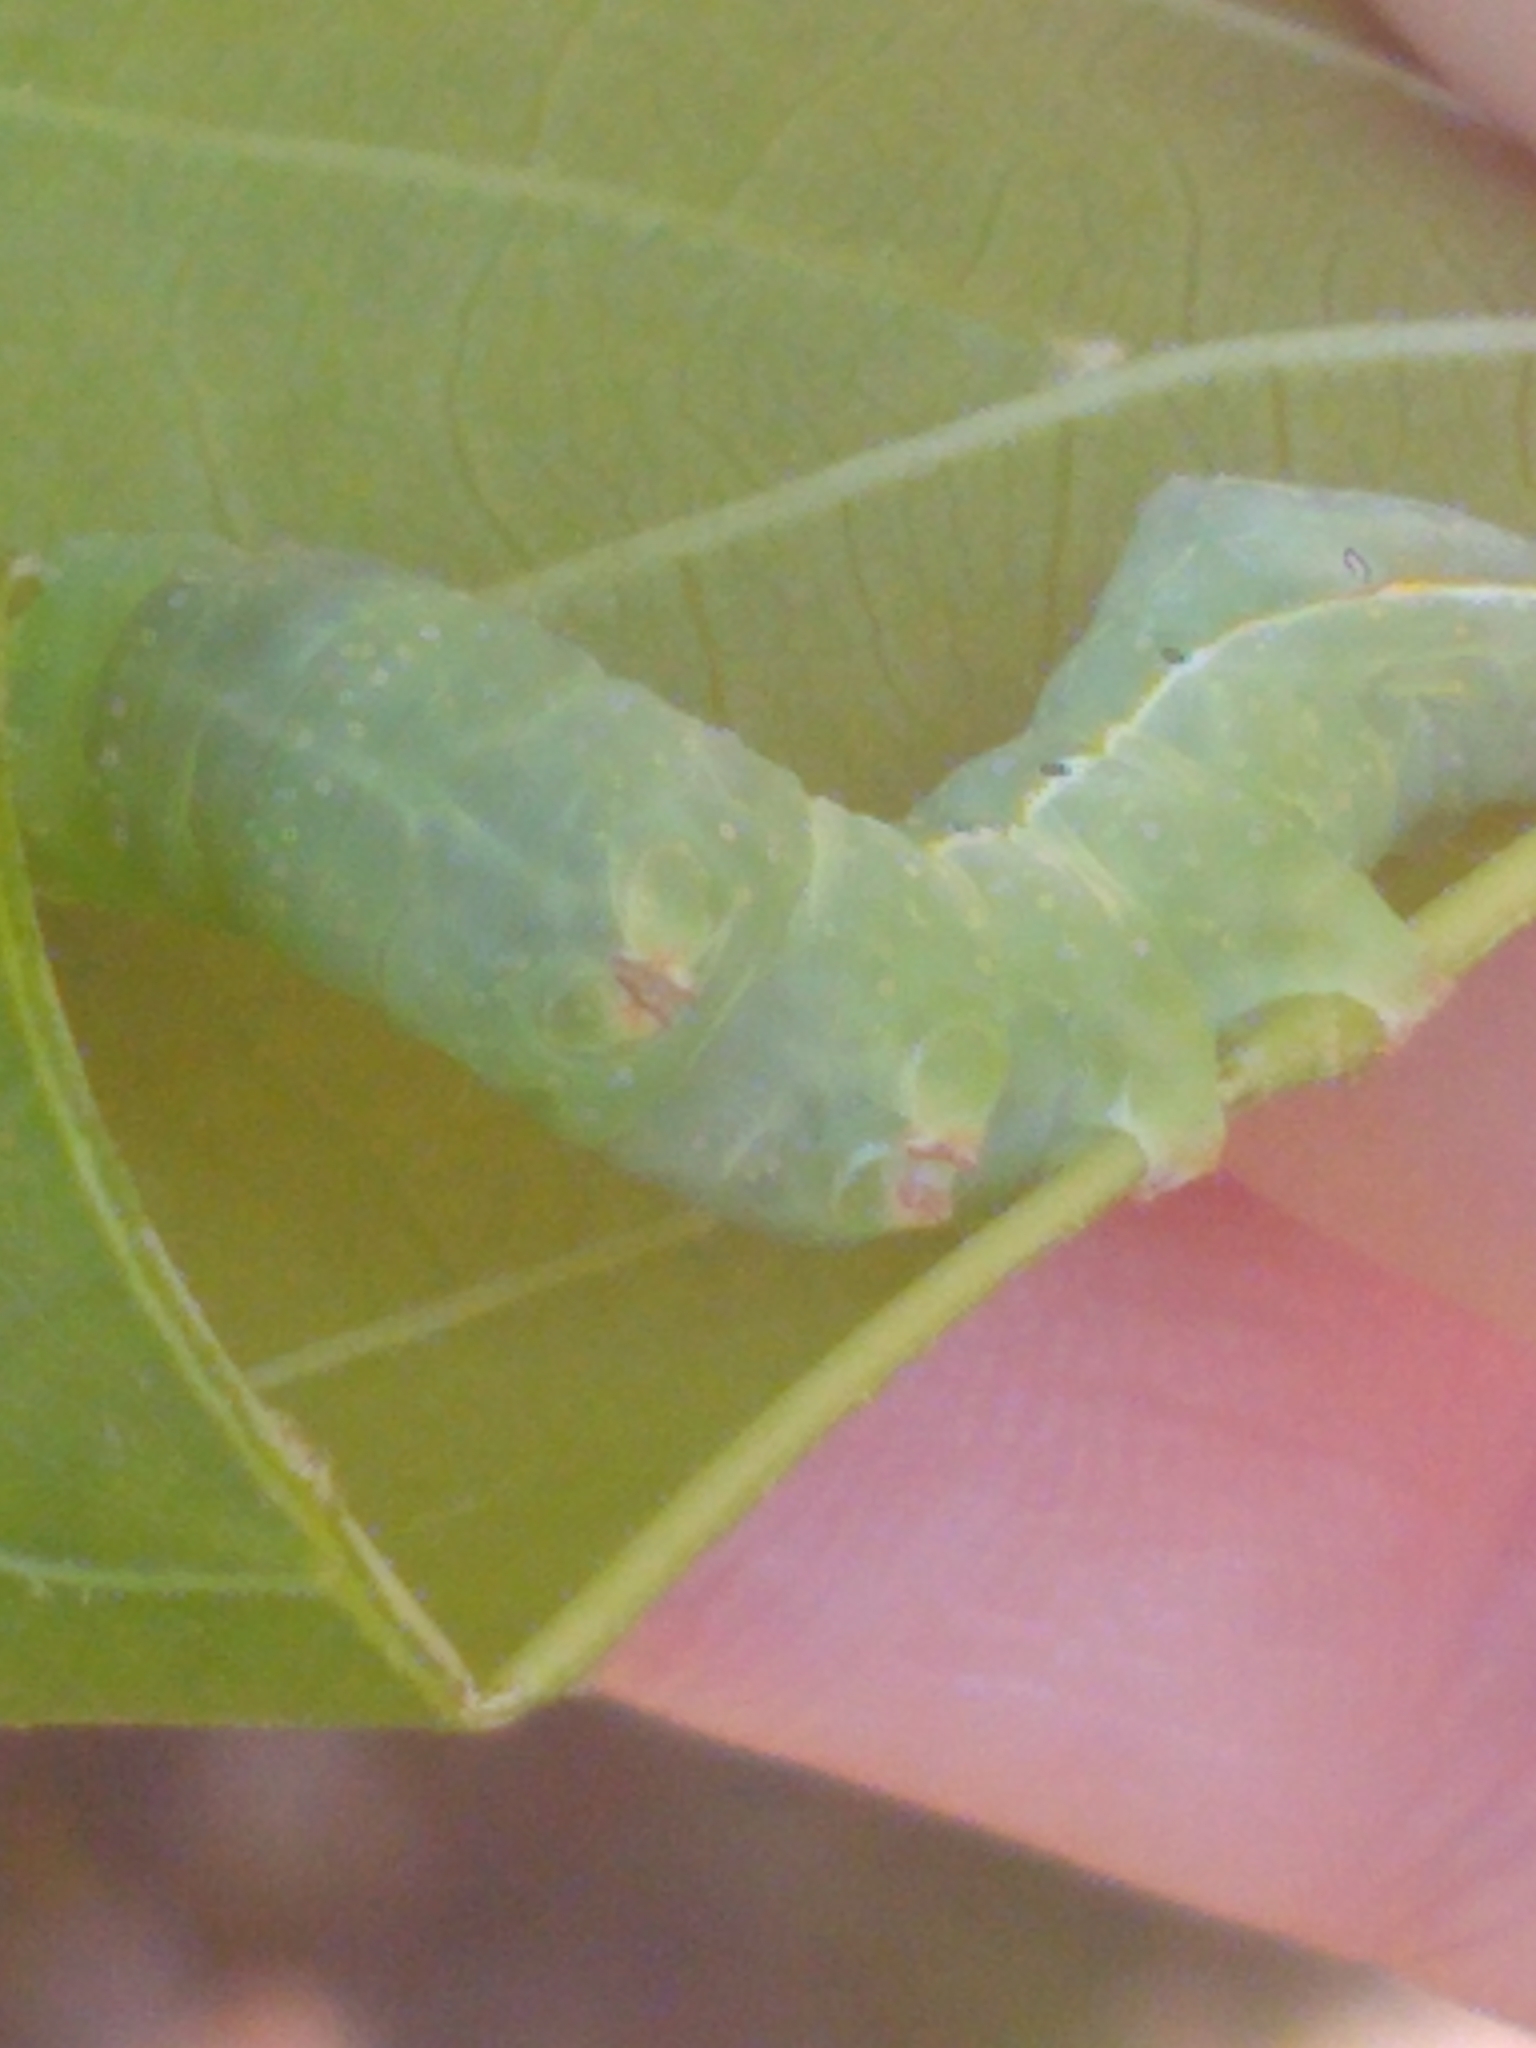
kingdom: Animalia
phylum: Arthropoda
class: Insecta
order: Lepidoptera
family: Noctuidae
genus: Amphipyra
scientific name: Amphipyra pyramidoides
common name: American copper underwing
